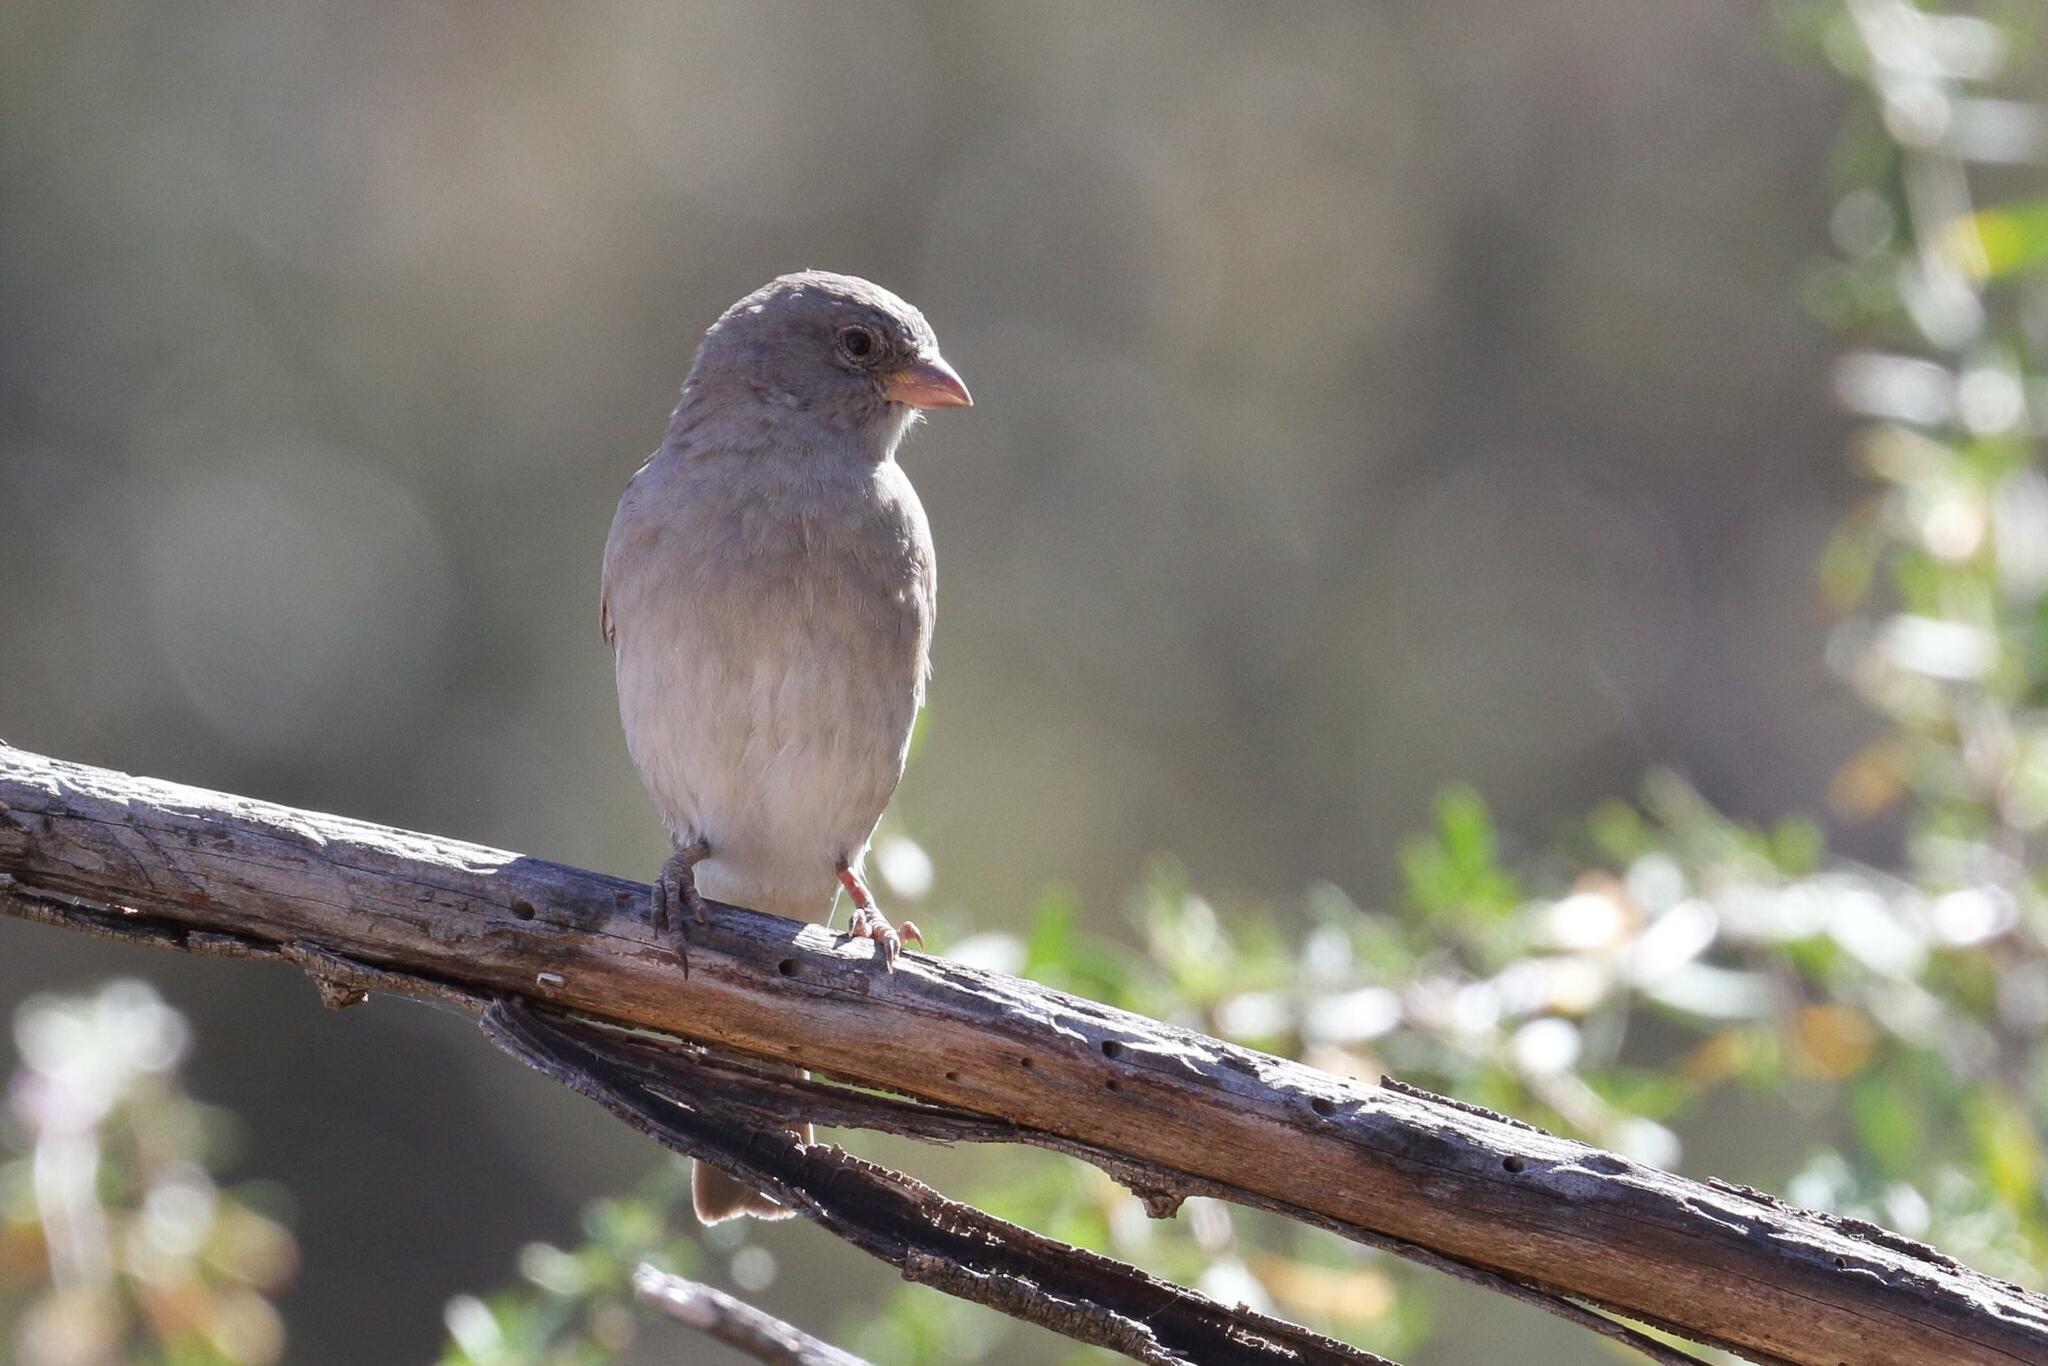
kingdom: Animalia
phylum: Chordata
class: Aves
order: Passeriformes
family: Passeridae
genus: Passer
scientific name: Passer diffusus
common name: Southern grey-headed sparrow
